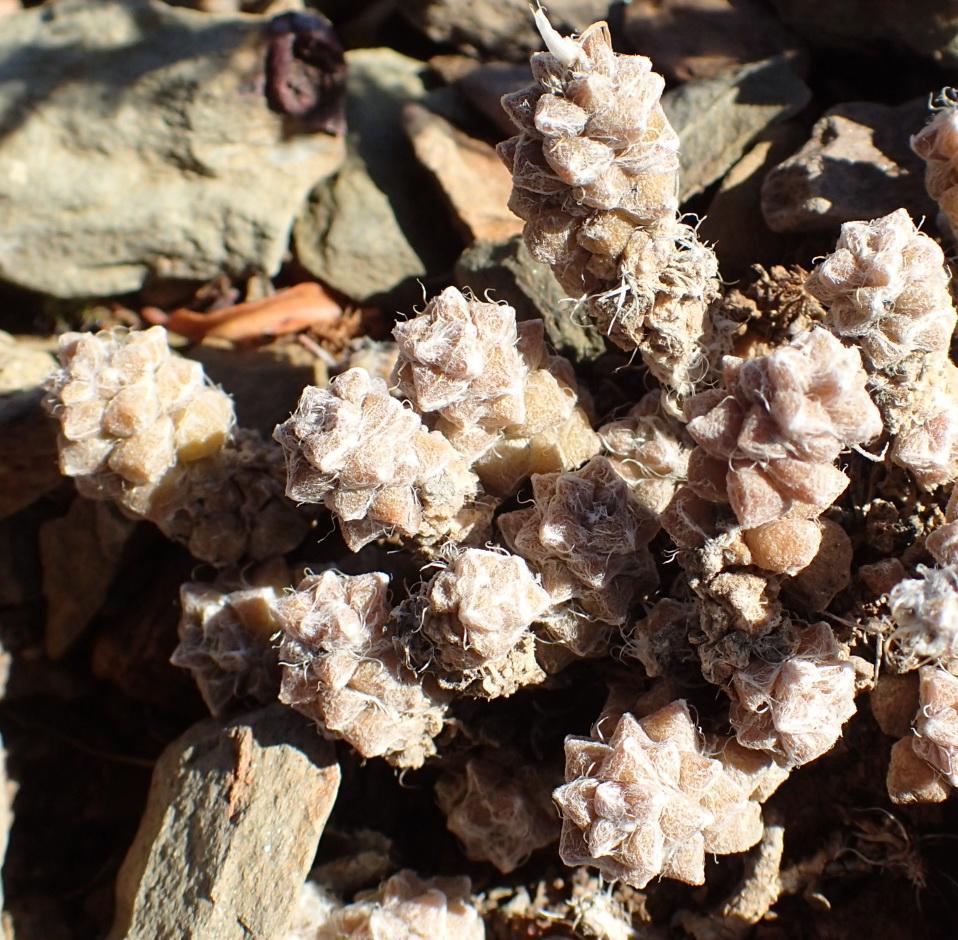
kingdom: Plantae
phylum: Tracheophyta
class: Magnoliopsida
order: Caryophyllales
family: Anacampserotaceae
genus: Anacampseros
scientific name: Anacampseros arachnoides
